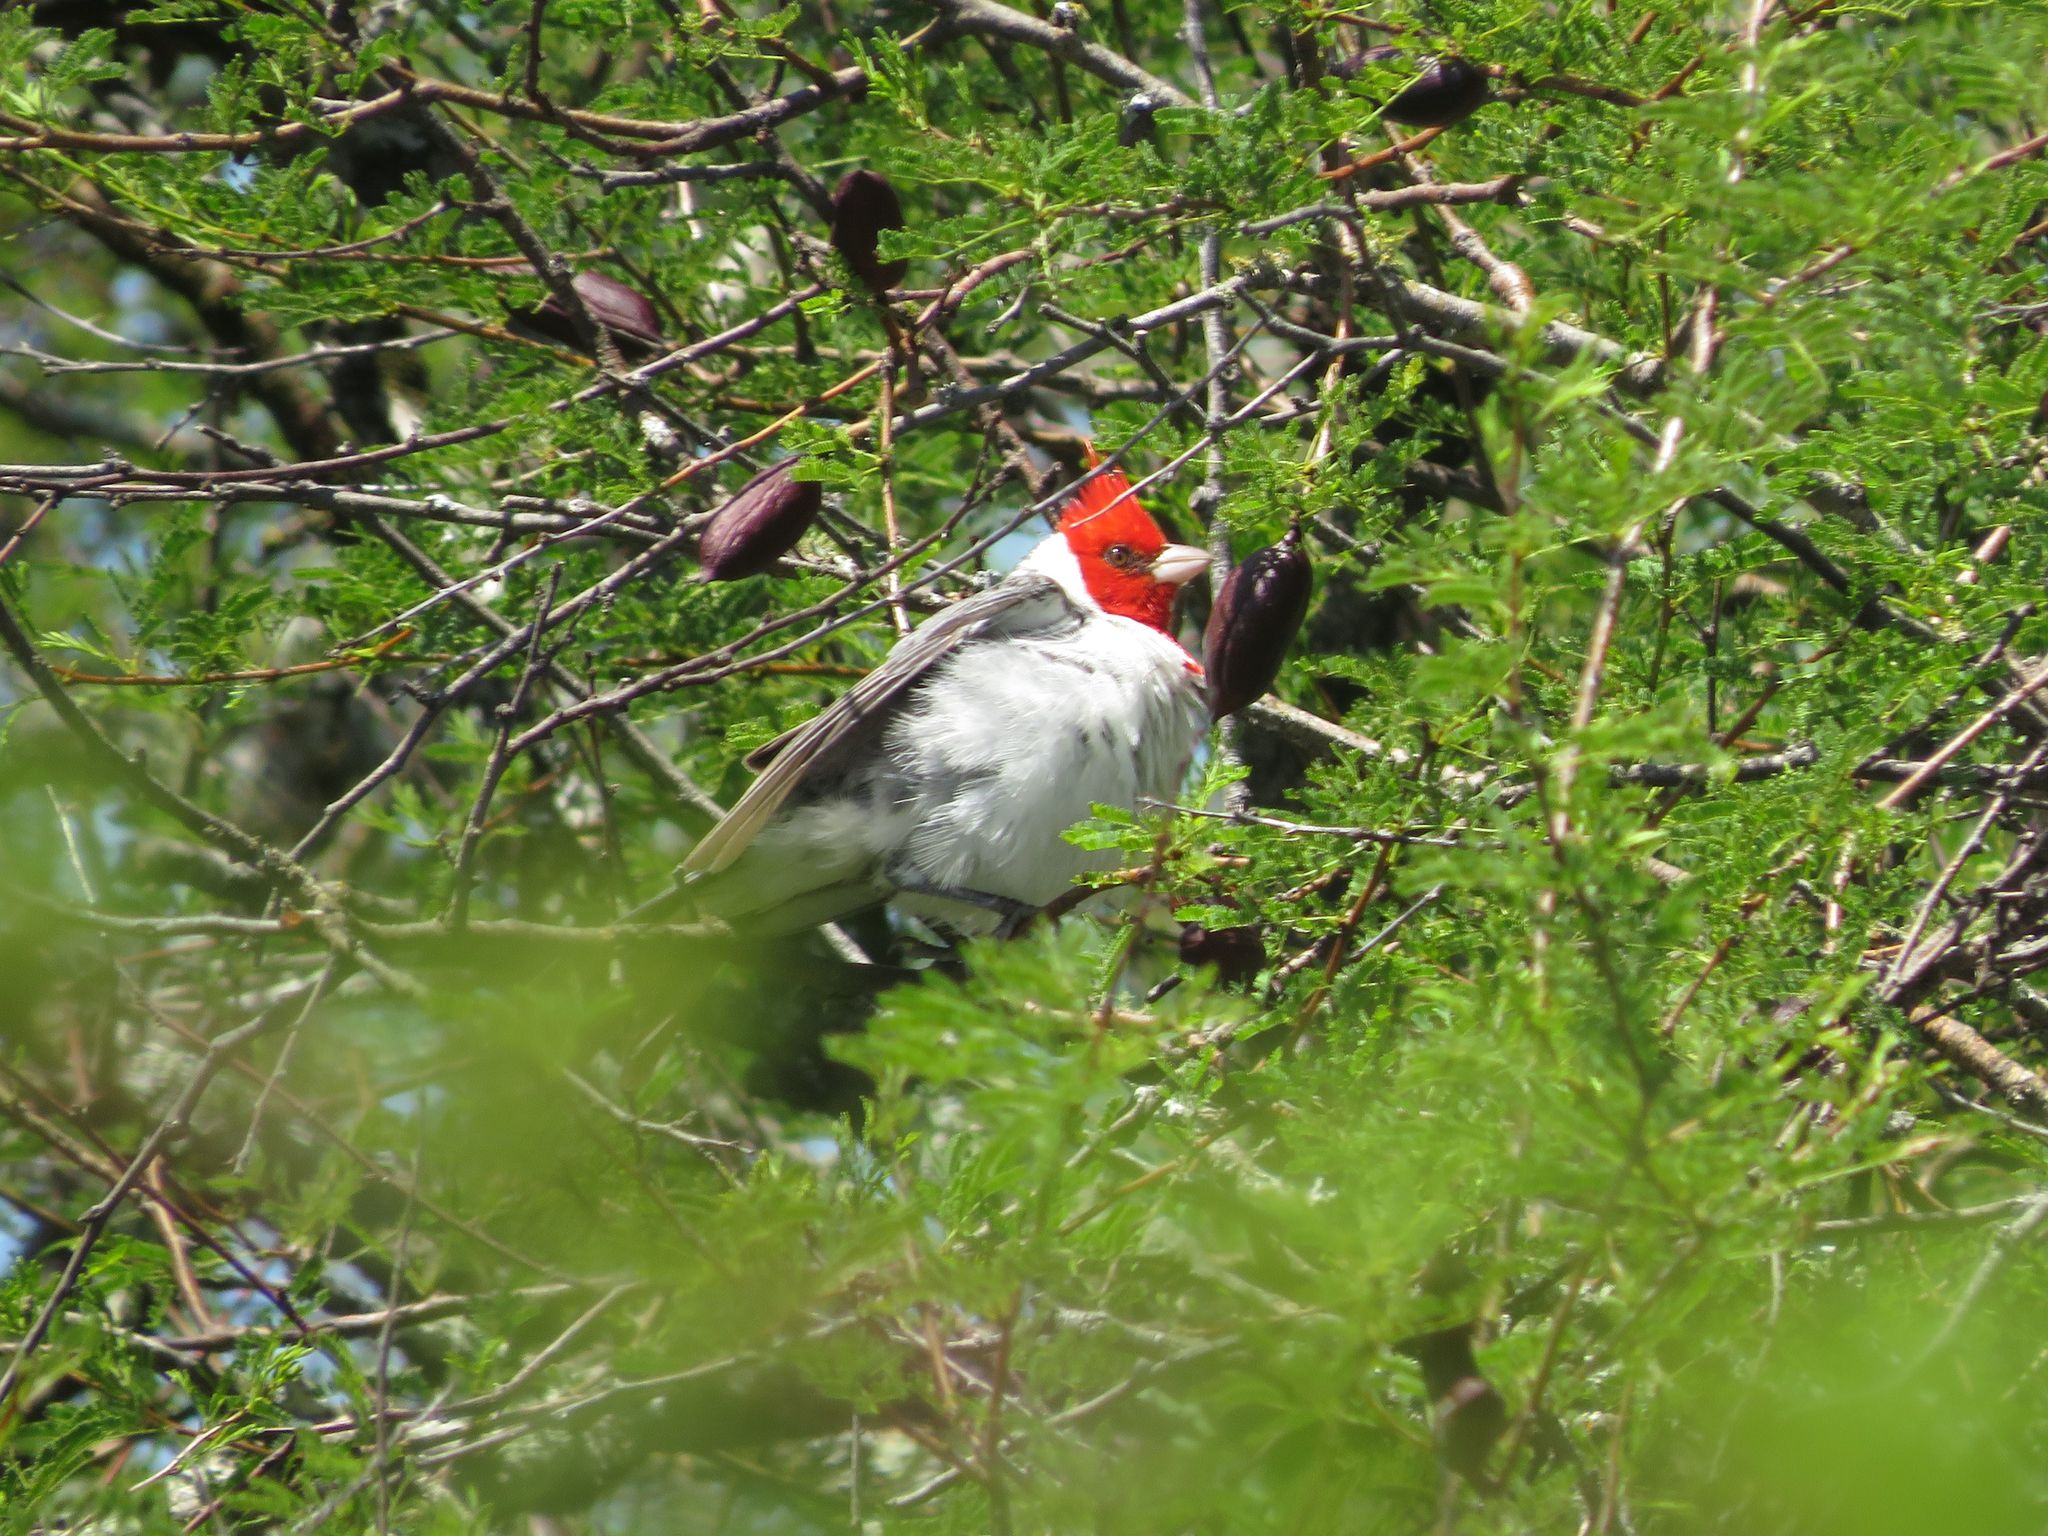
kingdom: Animalia
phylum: Chordata
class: Aves
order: Passeriformes
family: Thraupidae
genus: Paroaria
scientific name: Paroaria coronata
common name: Red-crested cardinal
